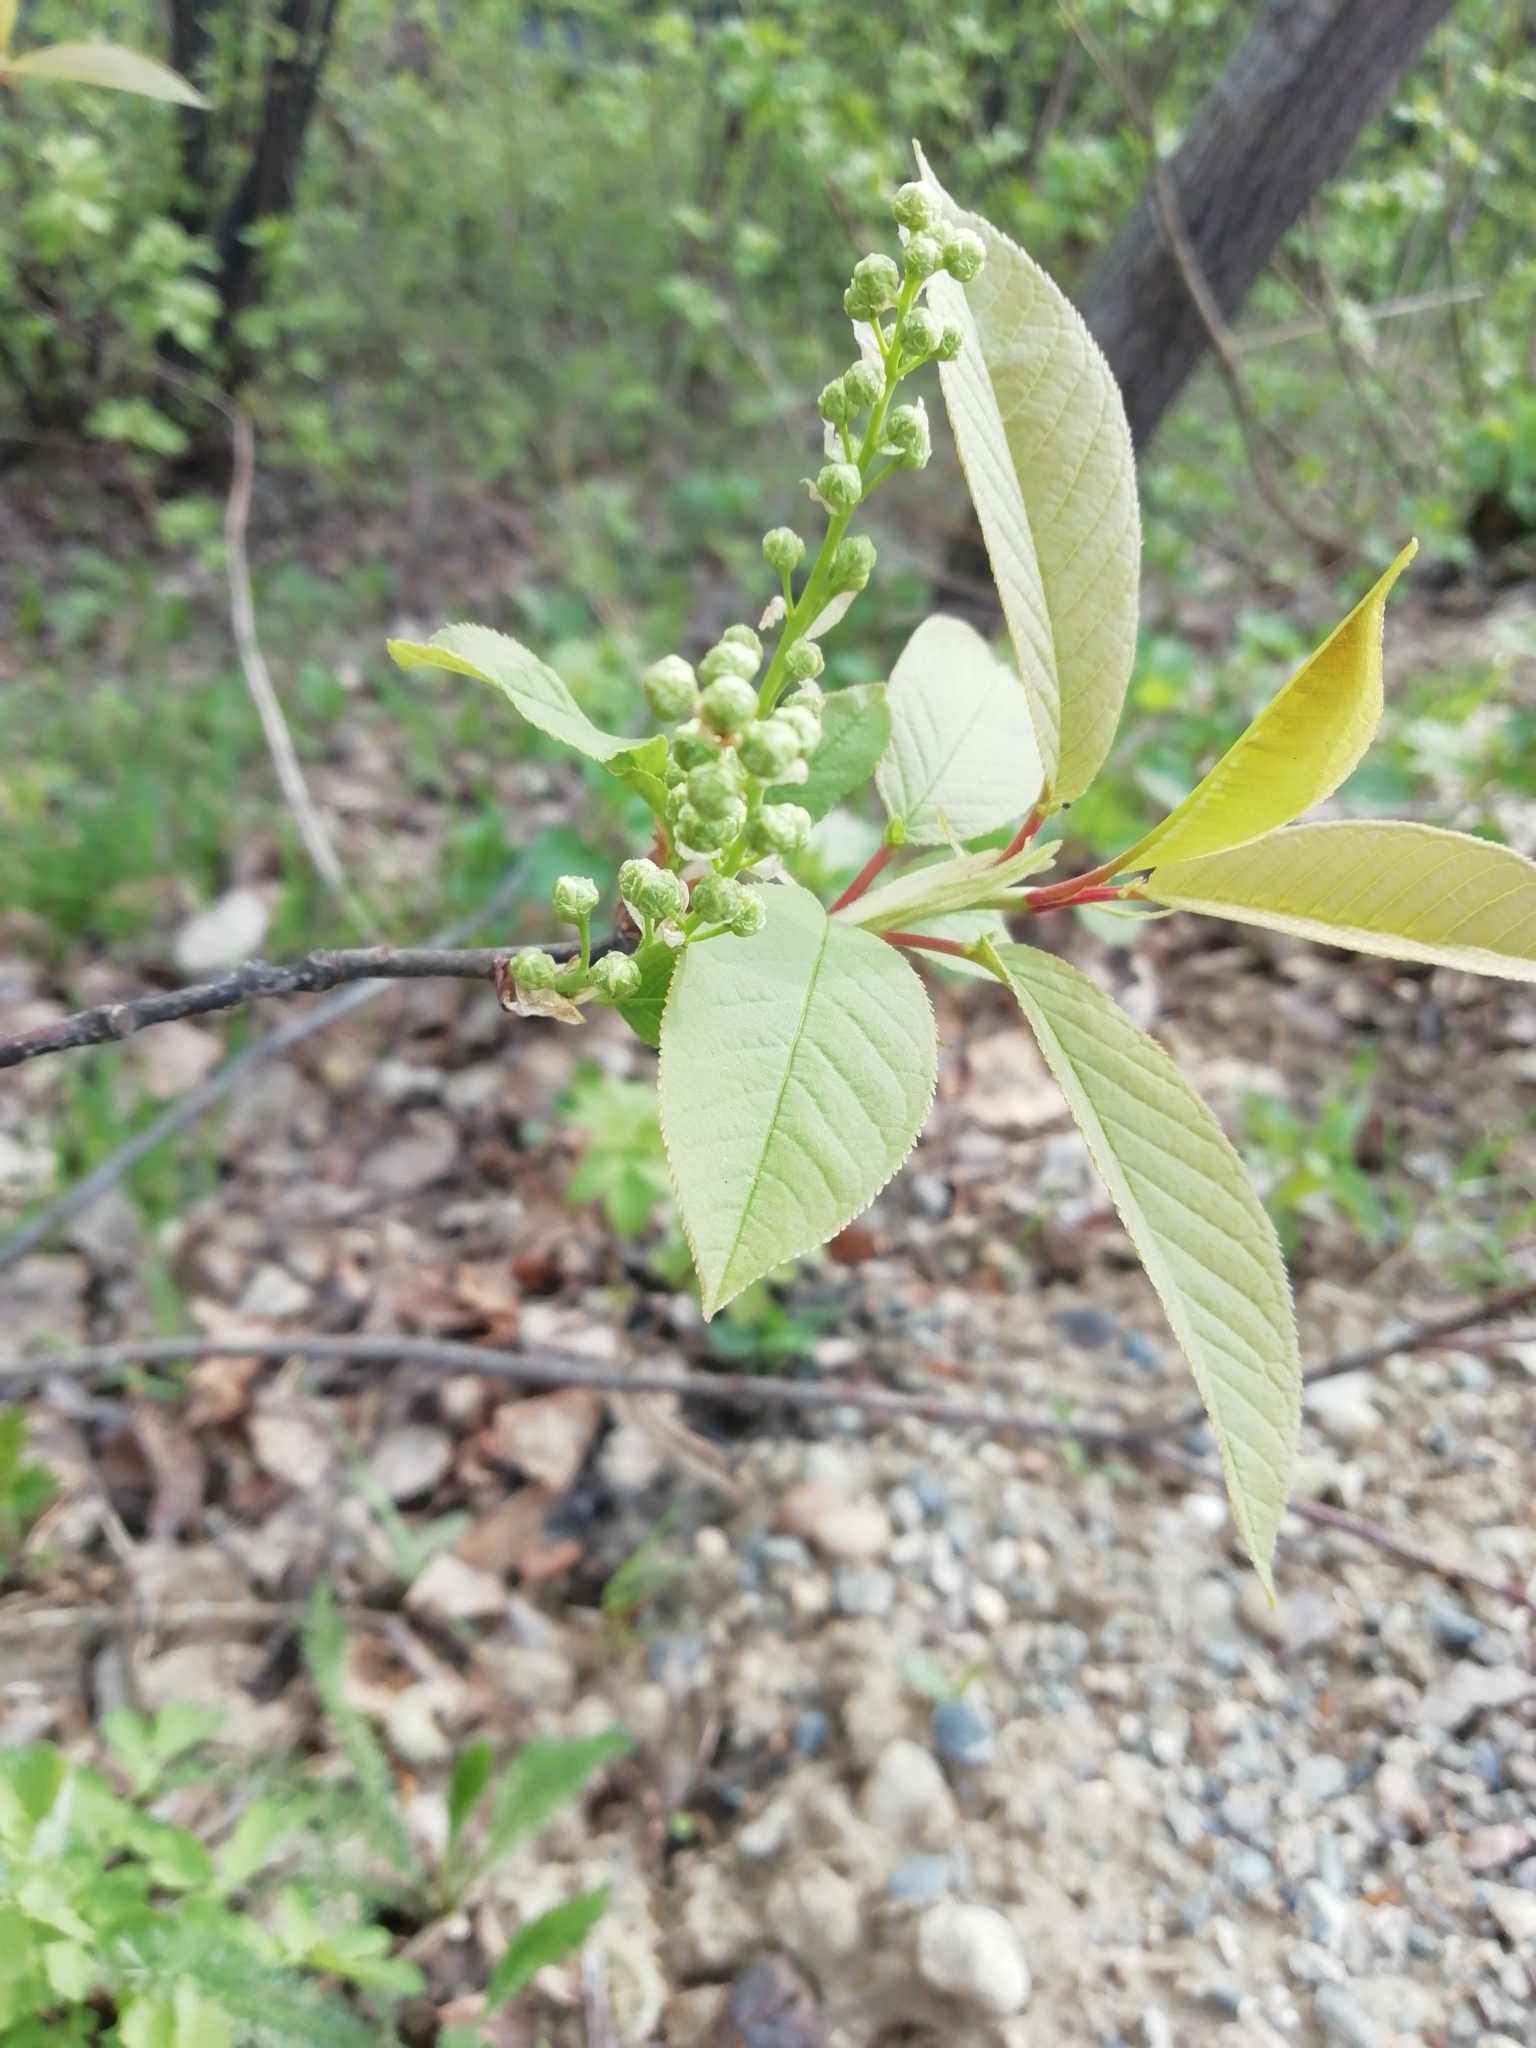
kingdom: Plantae
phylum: Tracheophyta
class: Magnoliopsida
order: Rosales
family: Rosaceae
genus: Prunus
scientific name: Prunus padus
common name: Bird cherry
